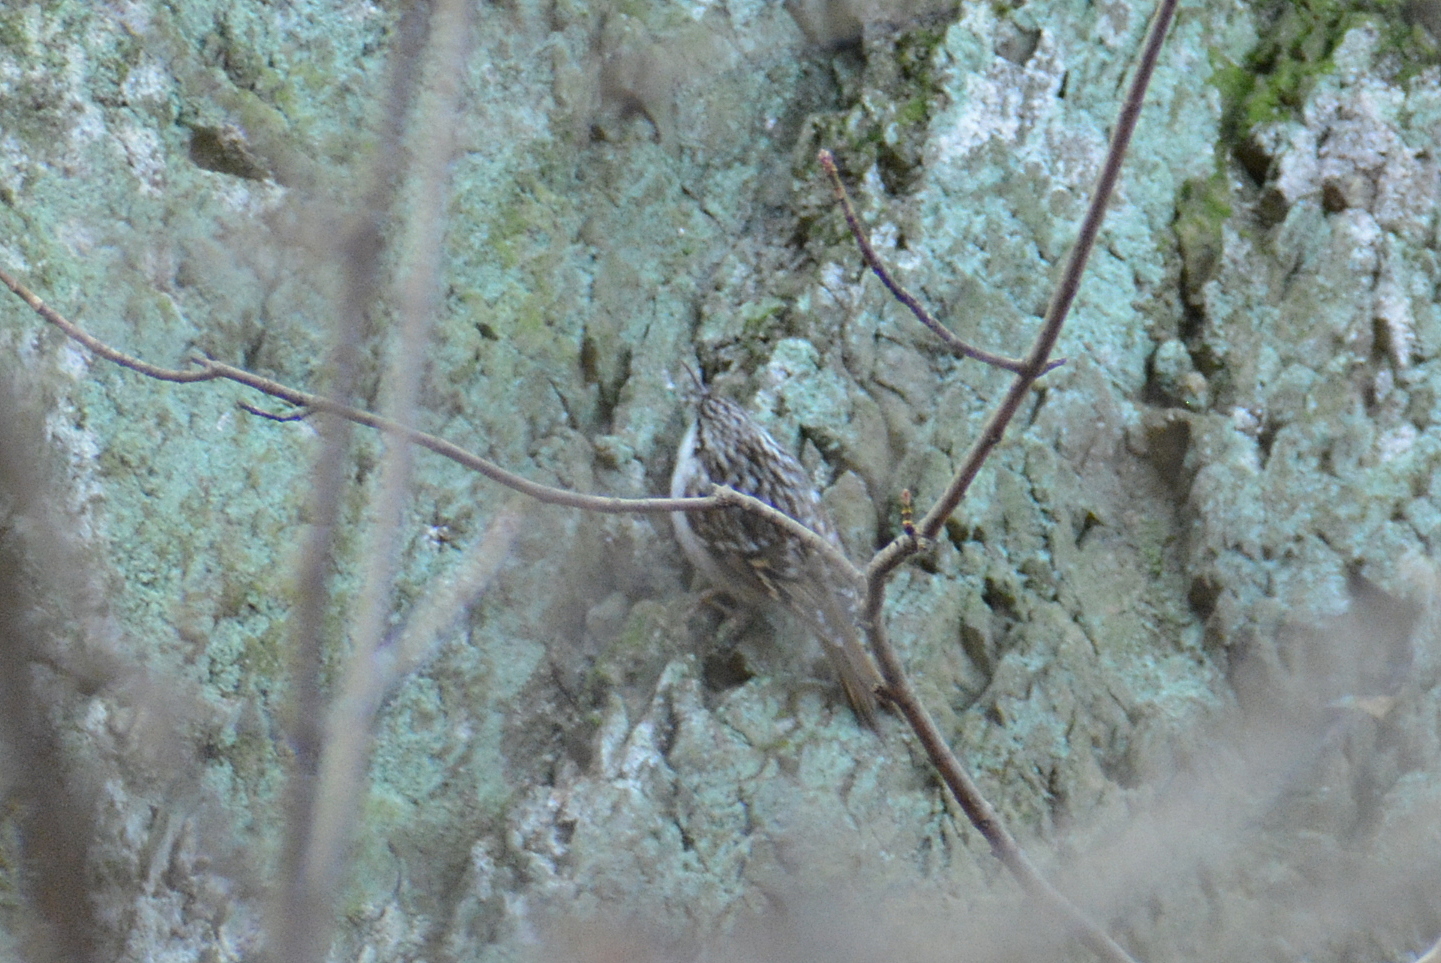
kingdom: Animalia
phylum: Chordata
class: Aves
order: Passeriformes
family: Certhiidae
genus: Certhia
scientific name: Certhia
